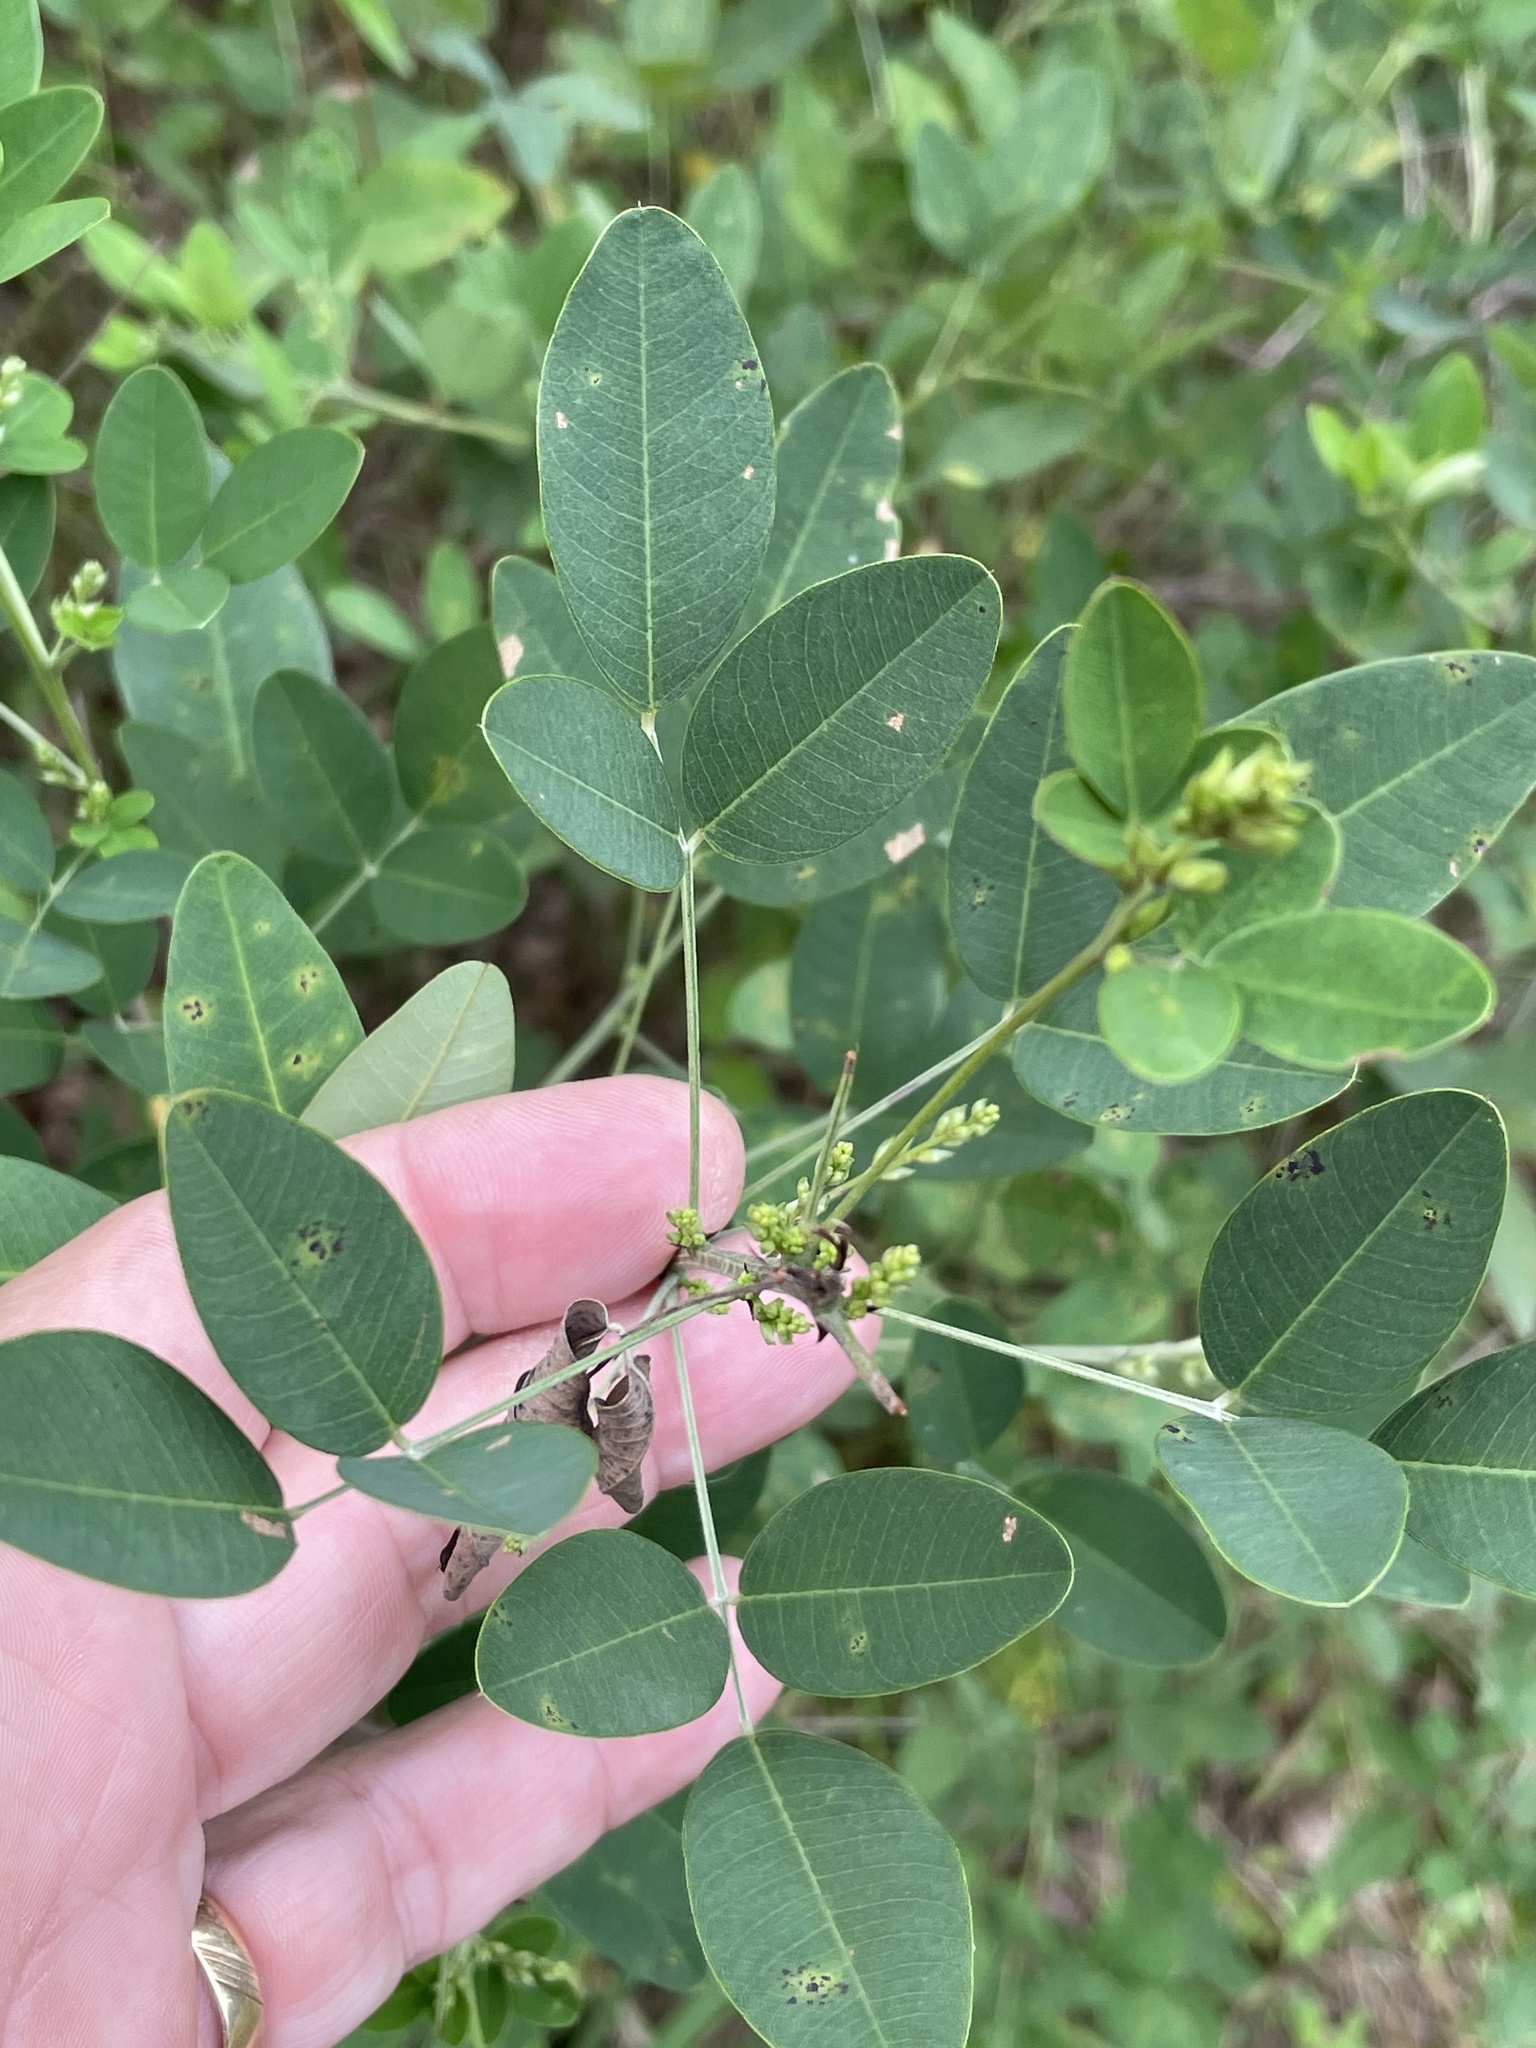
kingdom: Plantae
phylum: Tracheophyta
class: Magnoliopsida
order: Fabales
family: Fabaceae
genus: Lespedeza
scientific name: Lespedeza bicolor
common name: Shrub lespedeza
